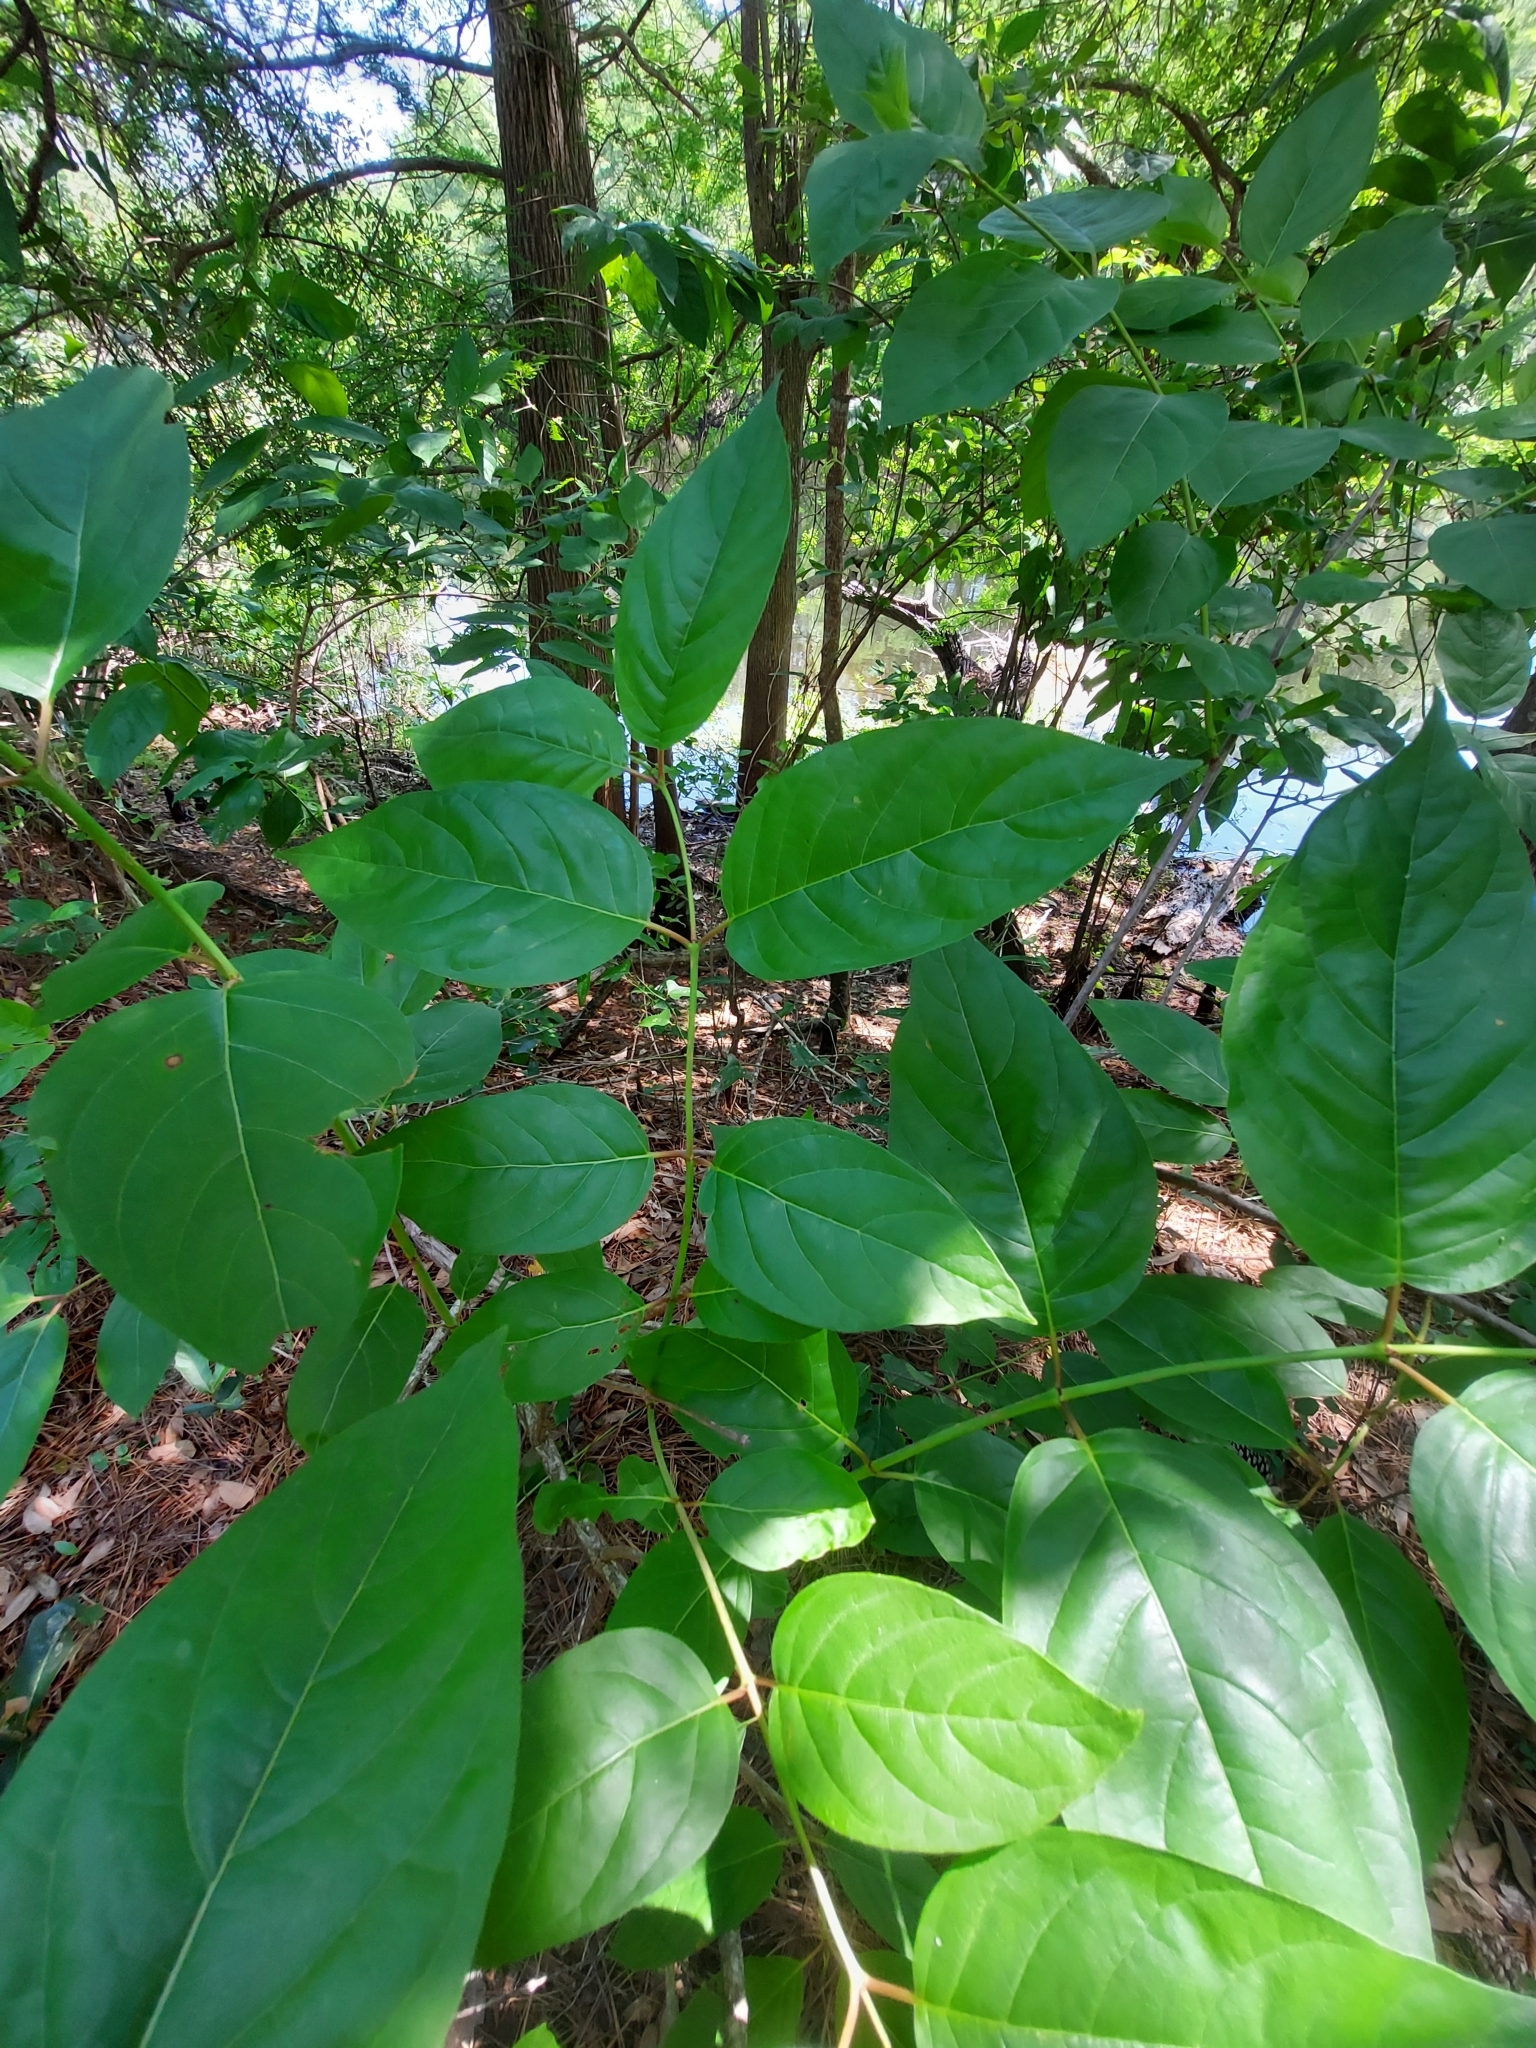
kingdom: Plantae
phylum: Tracheophyta
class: Magnoliopsida
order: Gentianales
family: Rubiaceae
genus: Cephalanthus
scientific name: Cephalanthus occidentalis
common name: Button-willow
